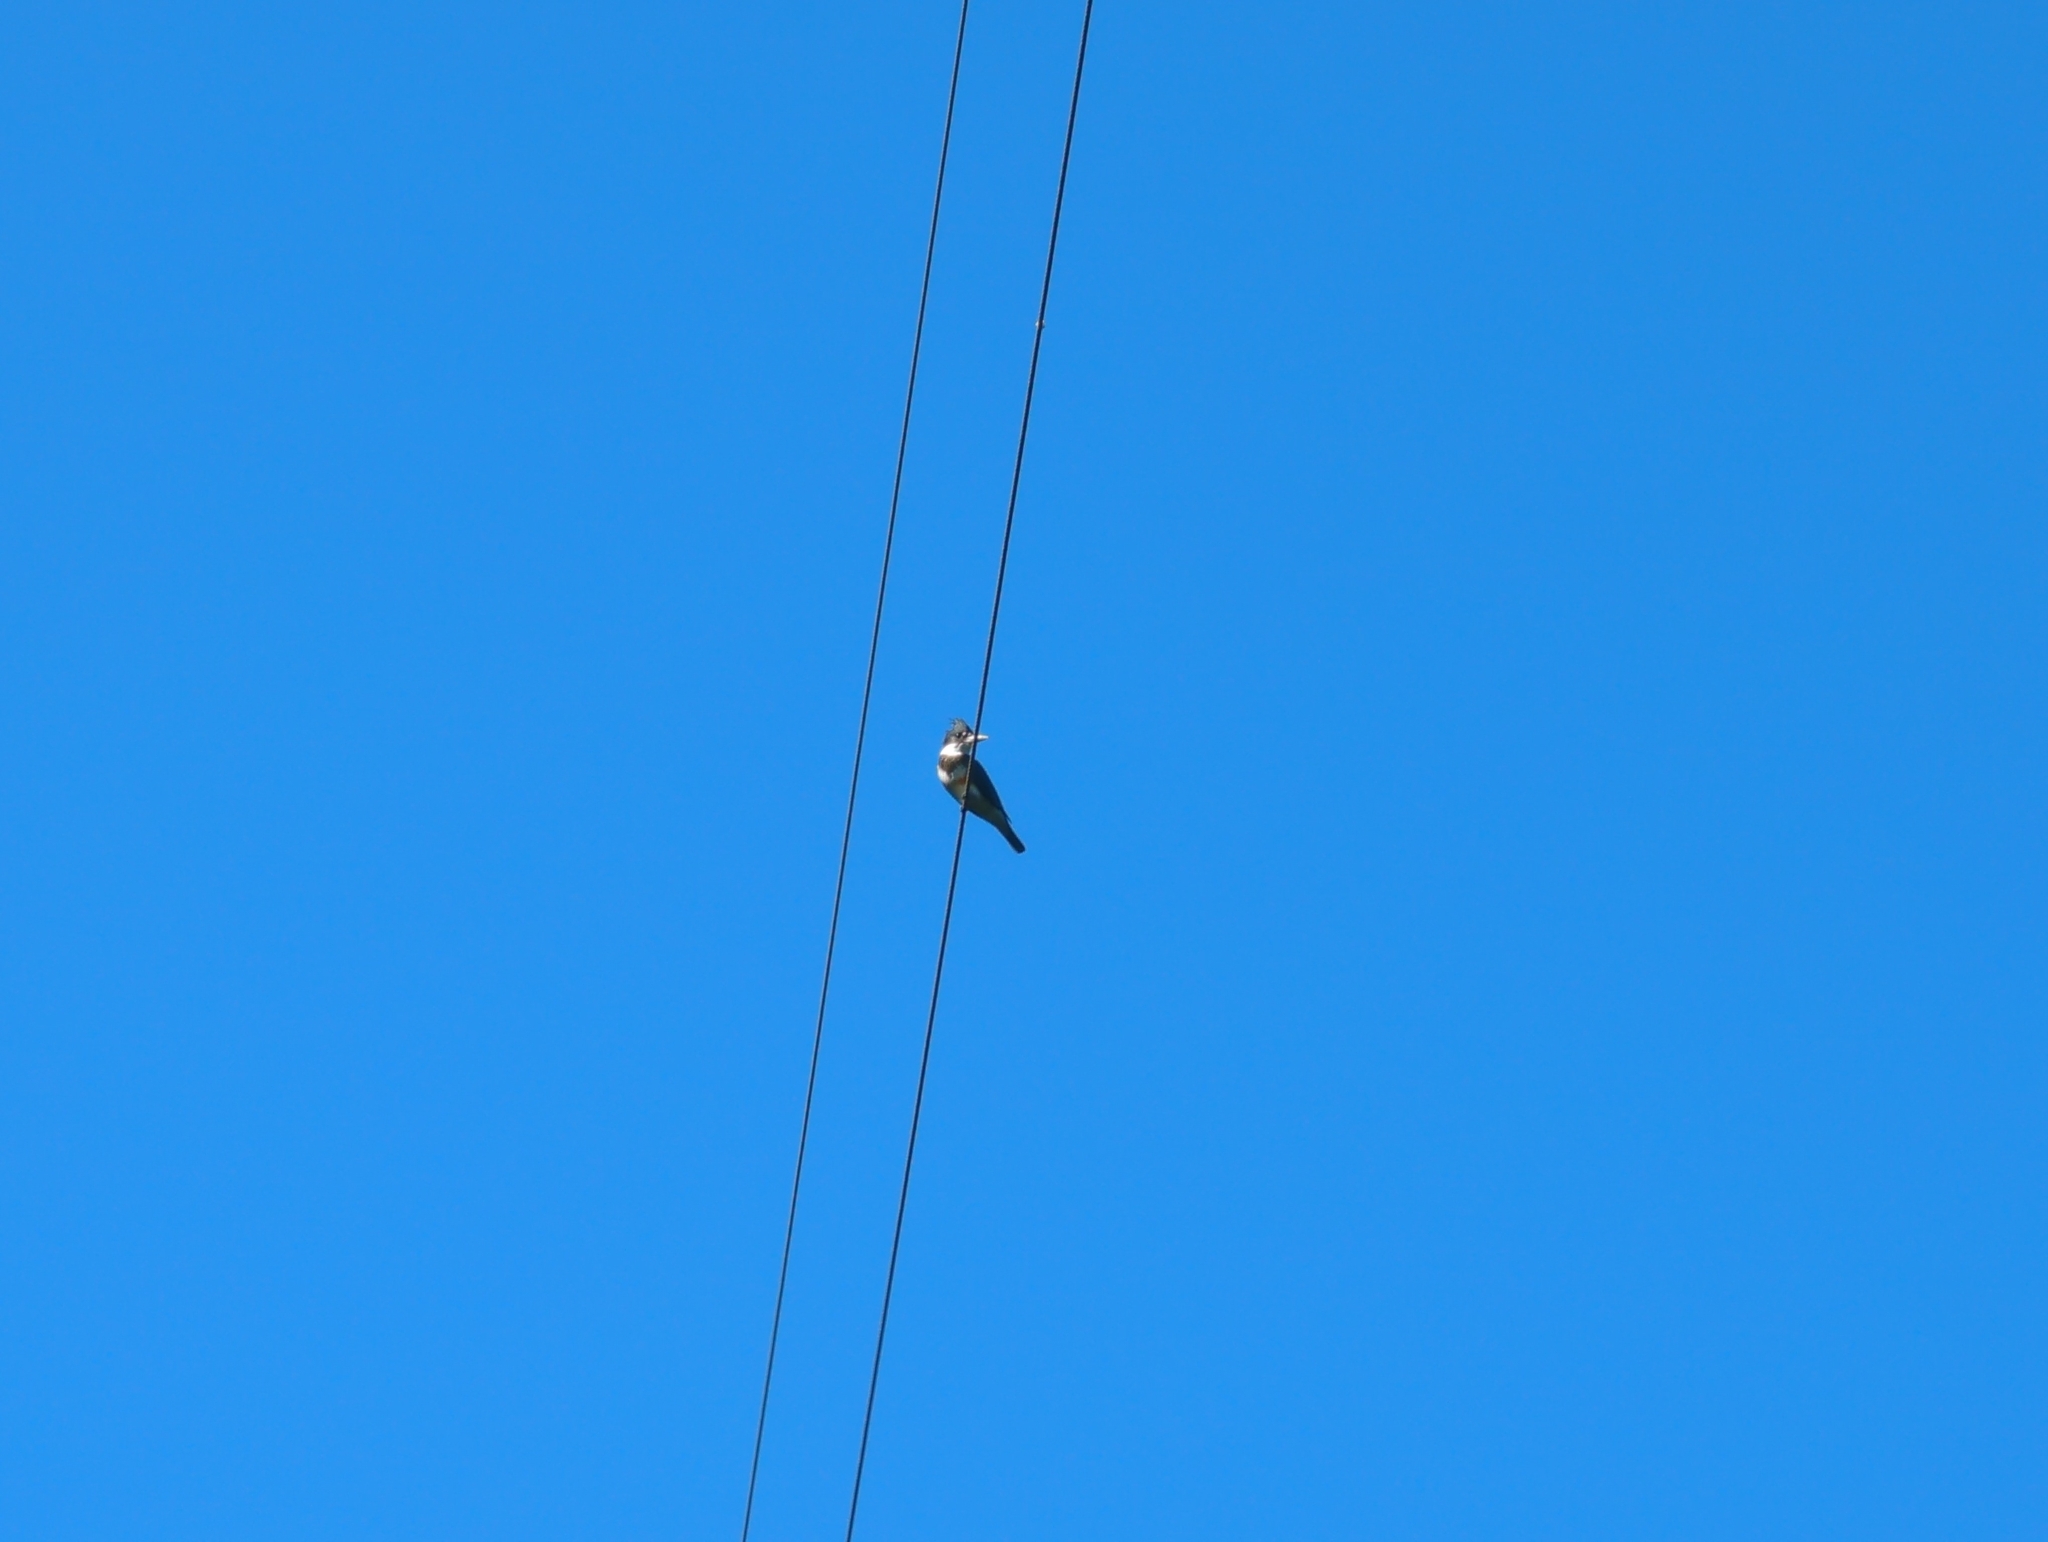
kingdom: Animalia
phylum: Chordata
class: Aves
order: Coraciiformes
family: Alcedinidae
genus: Megaceryle
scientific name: Megaceryle alcyon
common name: Belted kingfisher
